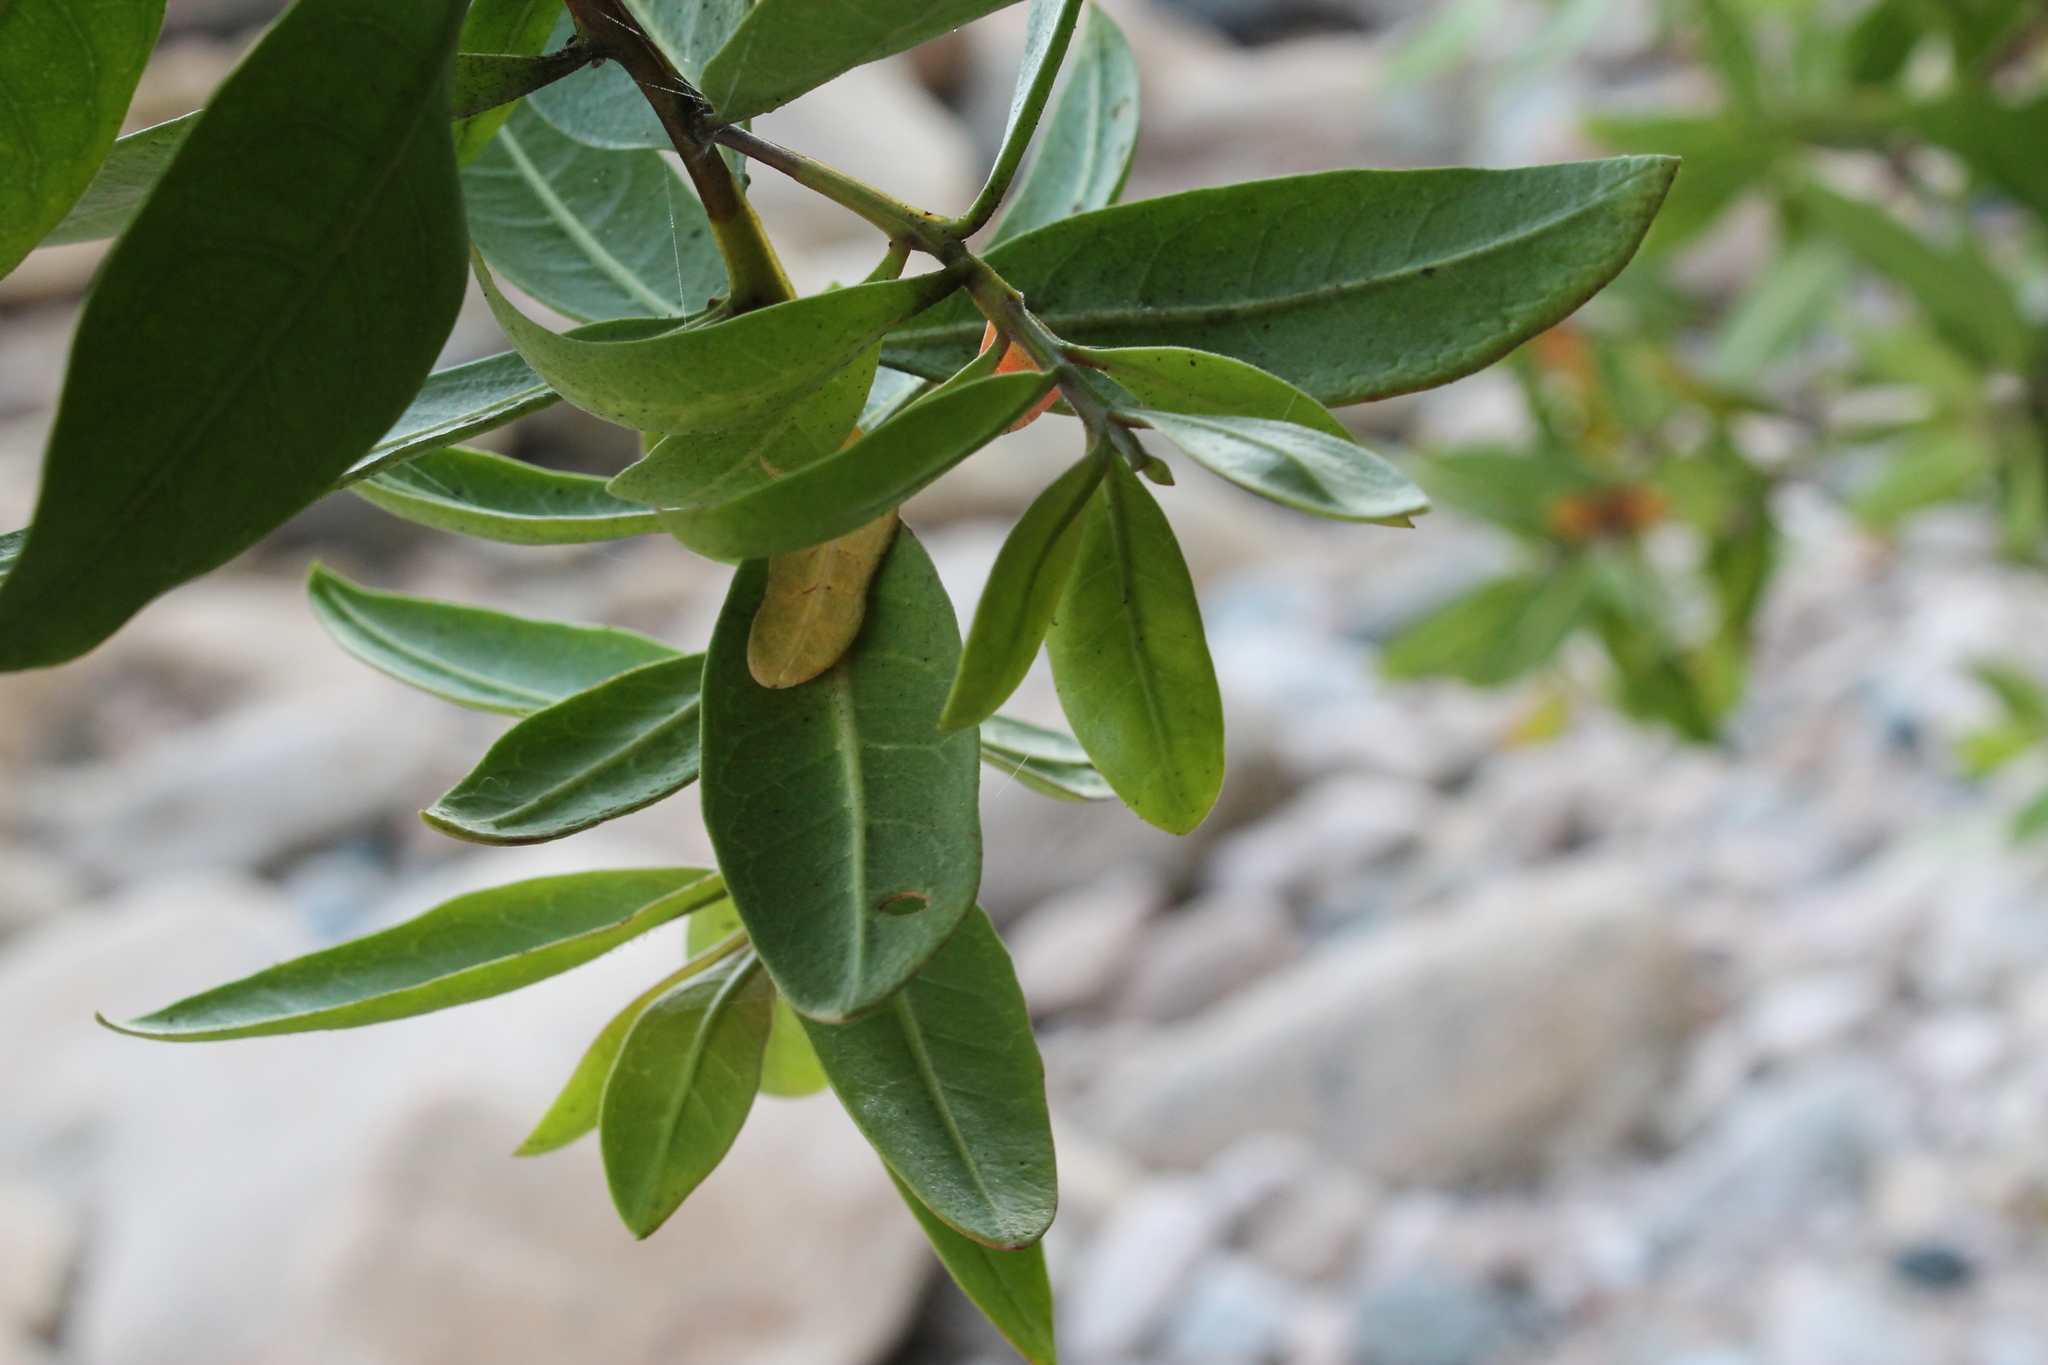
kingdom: Plantae
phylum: Tracheophyta
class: Magnoliopsida
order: Myrtales
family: Combretaceae
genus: Conocarpus
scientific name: Conocarpus erectus
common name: Button mangrove
